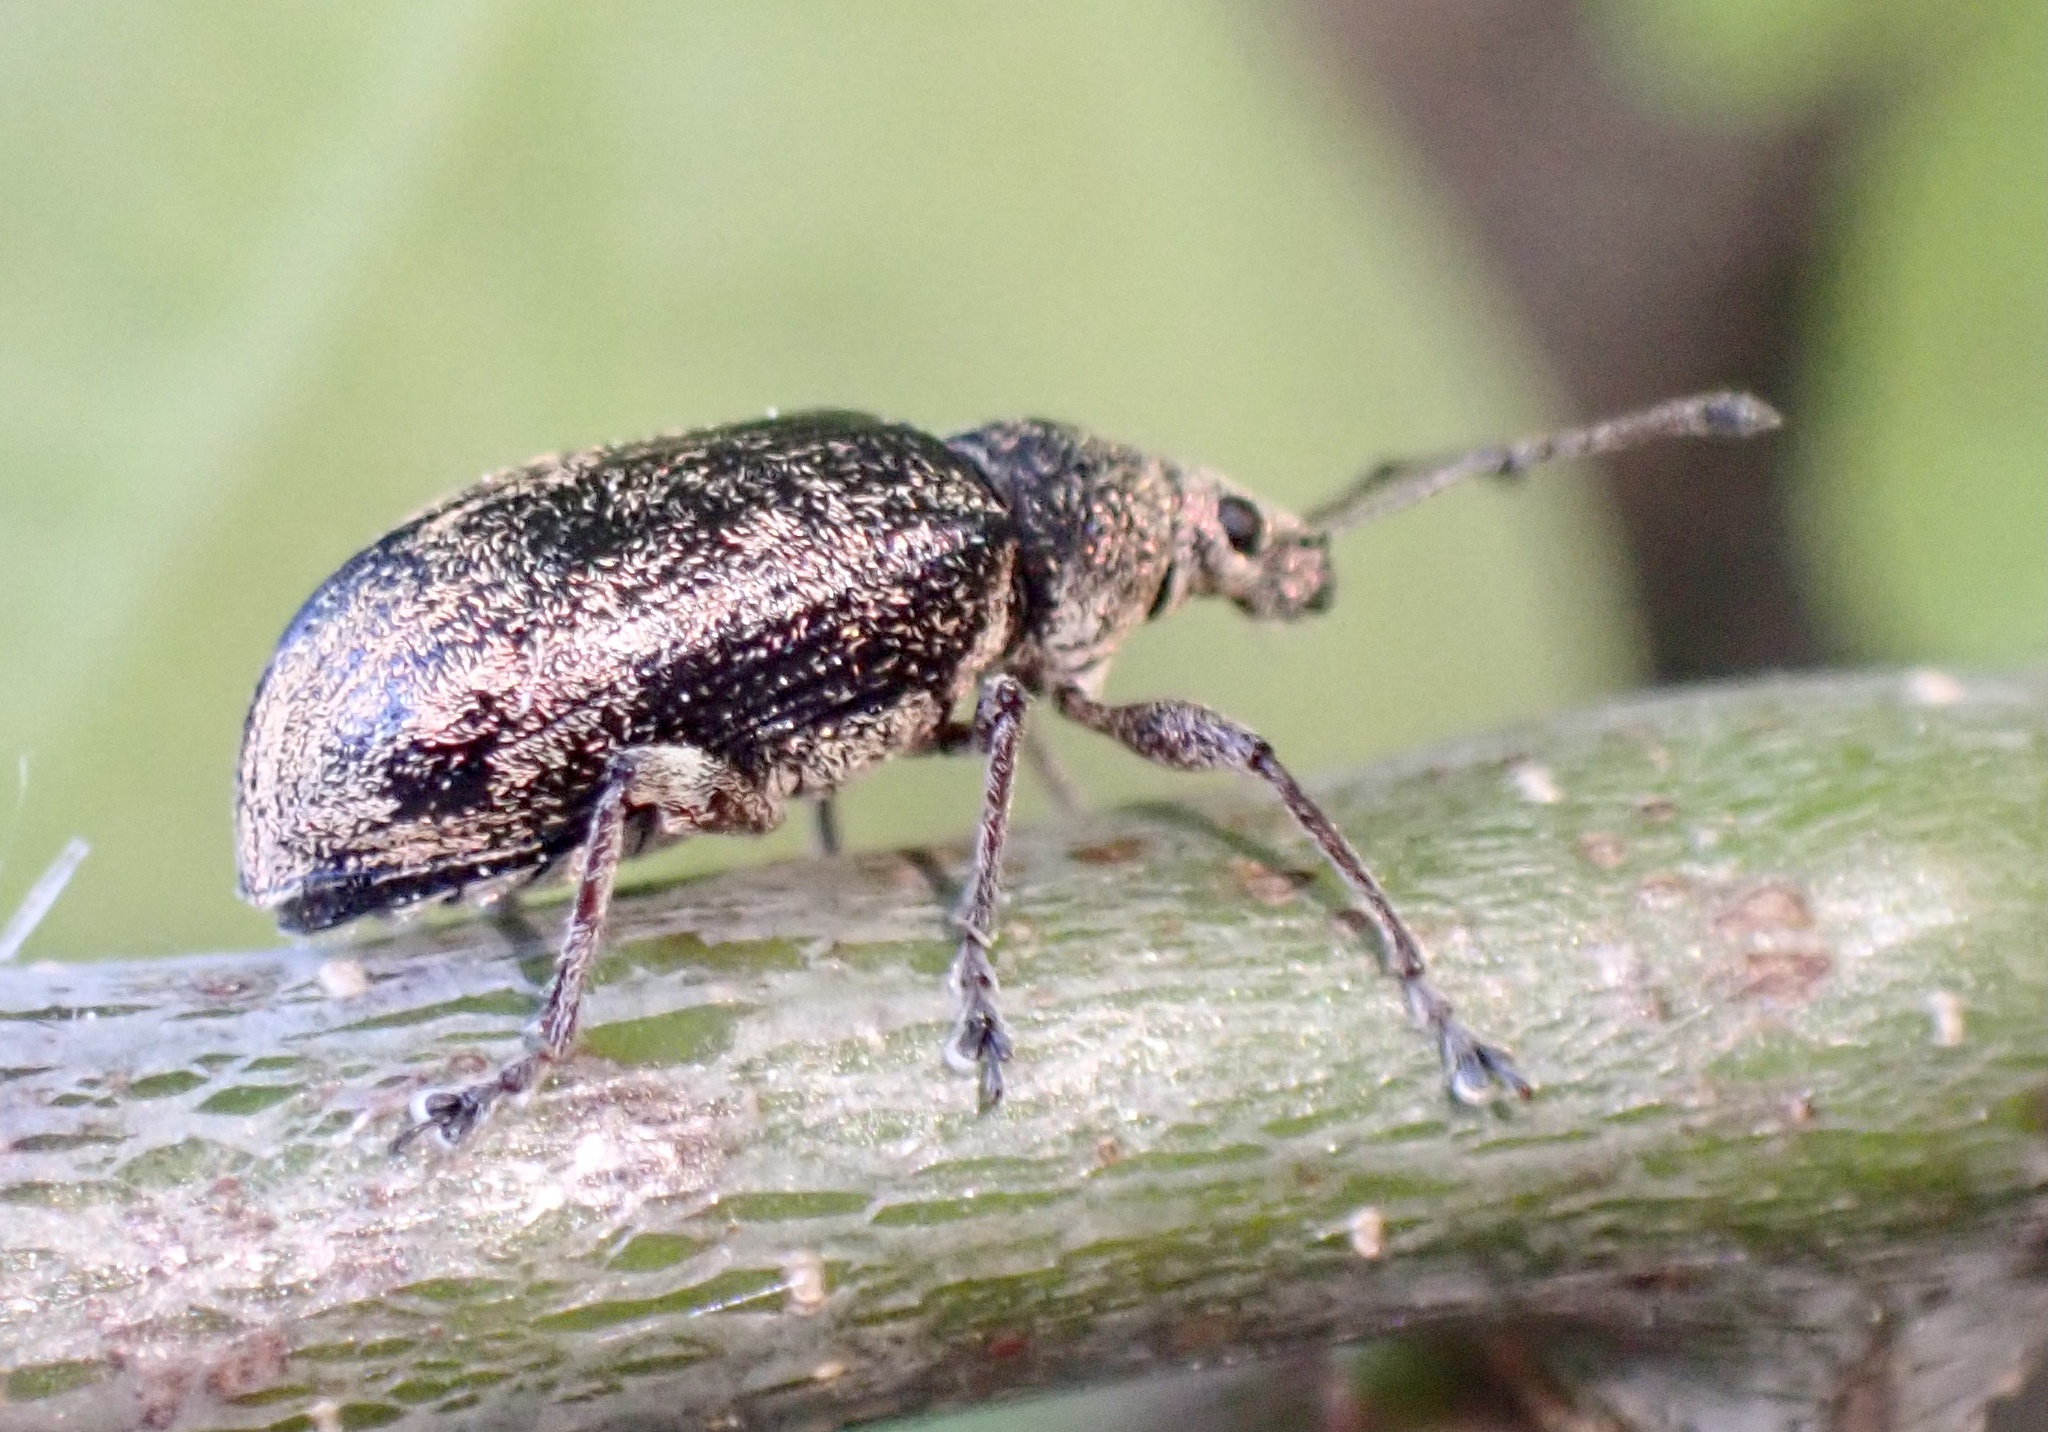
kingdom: Animalia
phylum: Arthropoda
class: Insecta
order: Coleoptera
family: Curculionidae
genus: Phyllobius
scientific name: Phyllobius pyri
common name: Common leaf weevil
